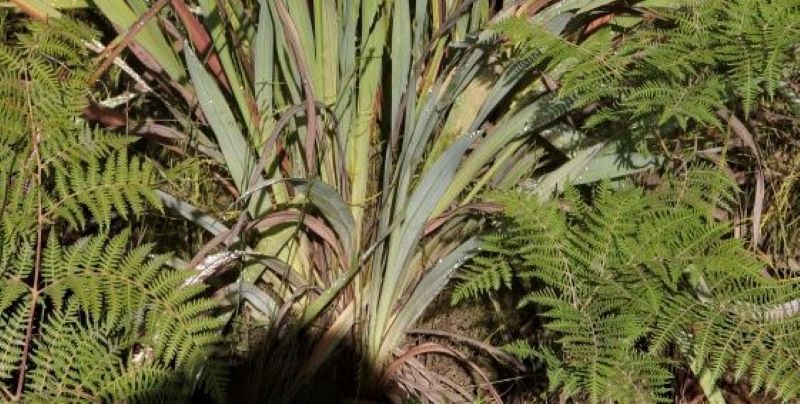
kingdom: Plantae
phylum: Tracheophyta
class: Polypodiopsida
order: Polypodiales
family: Dennstaedtiaceae
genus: Pteridium
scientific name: Pteridium aquilinum
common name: Bracken
